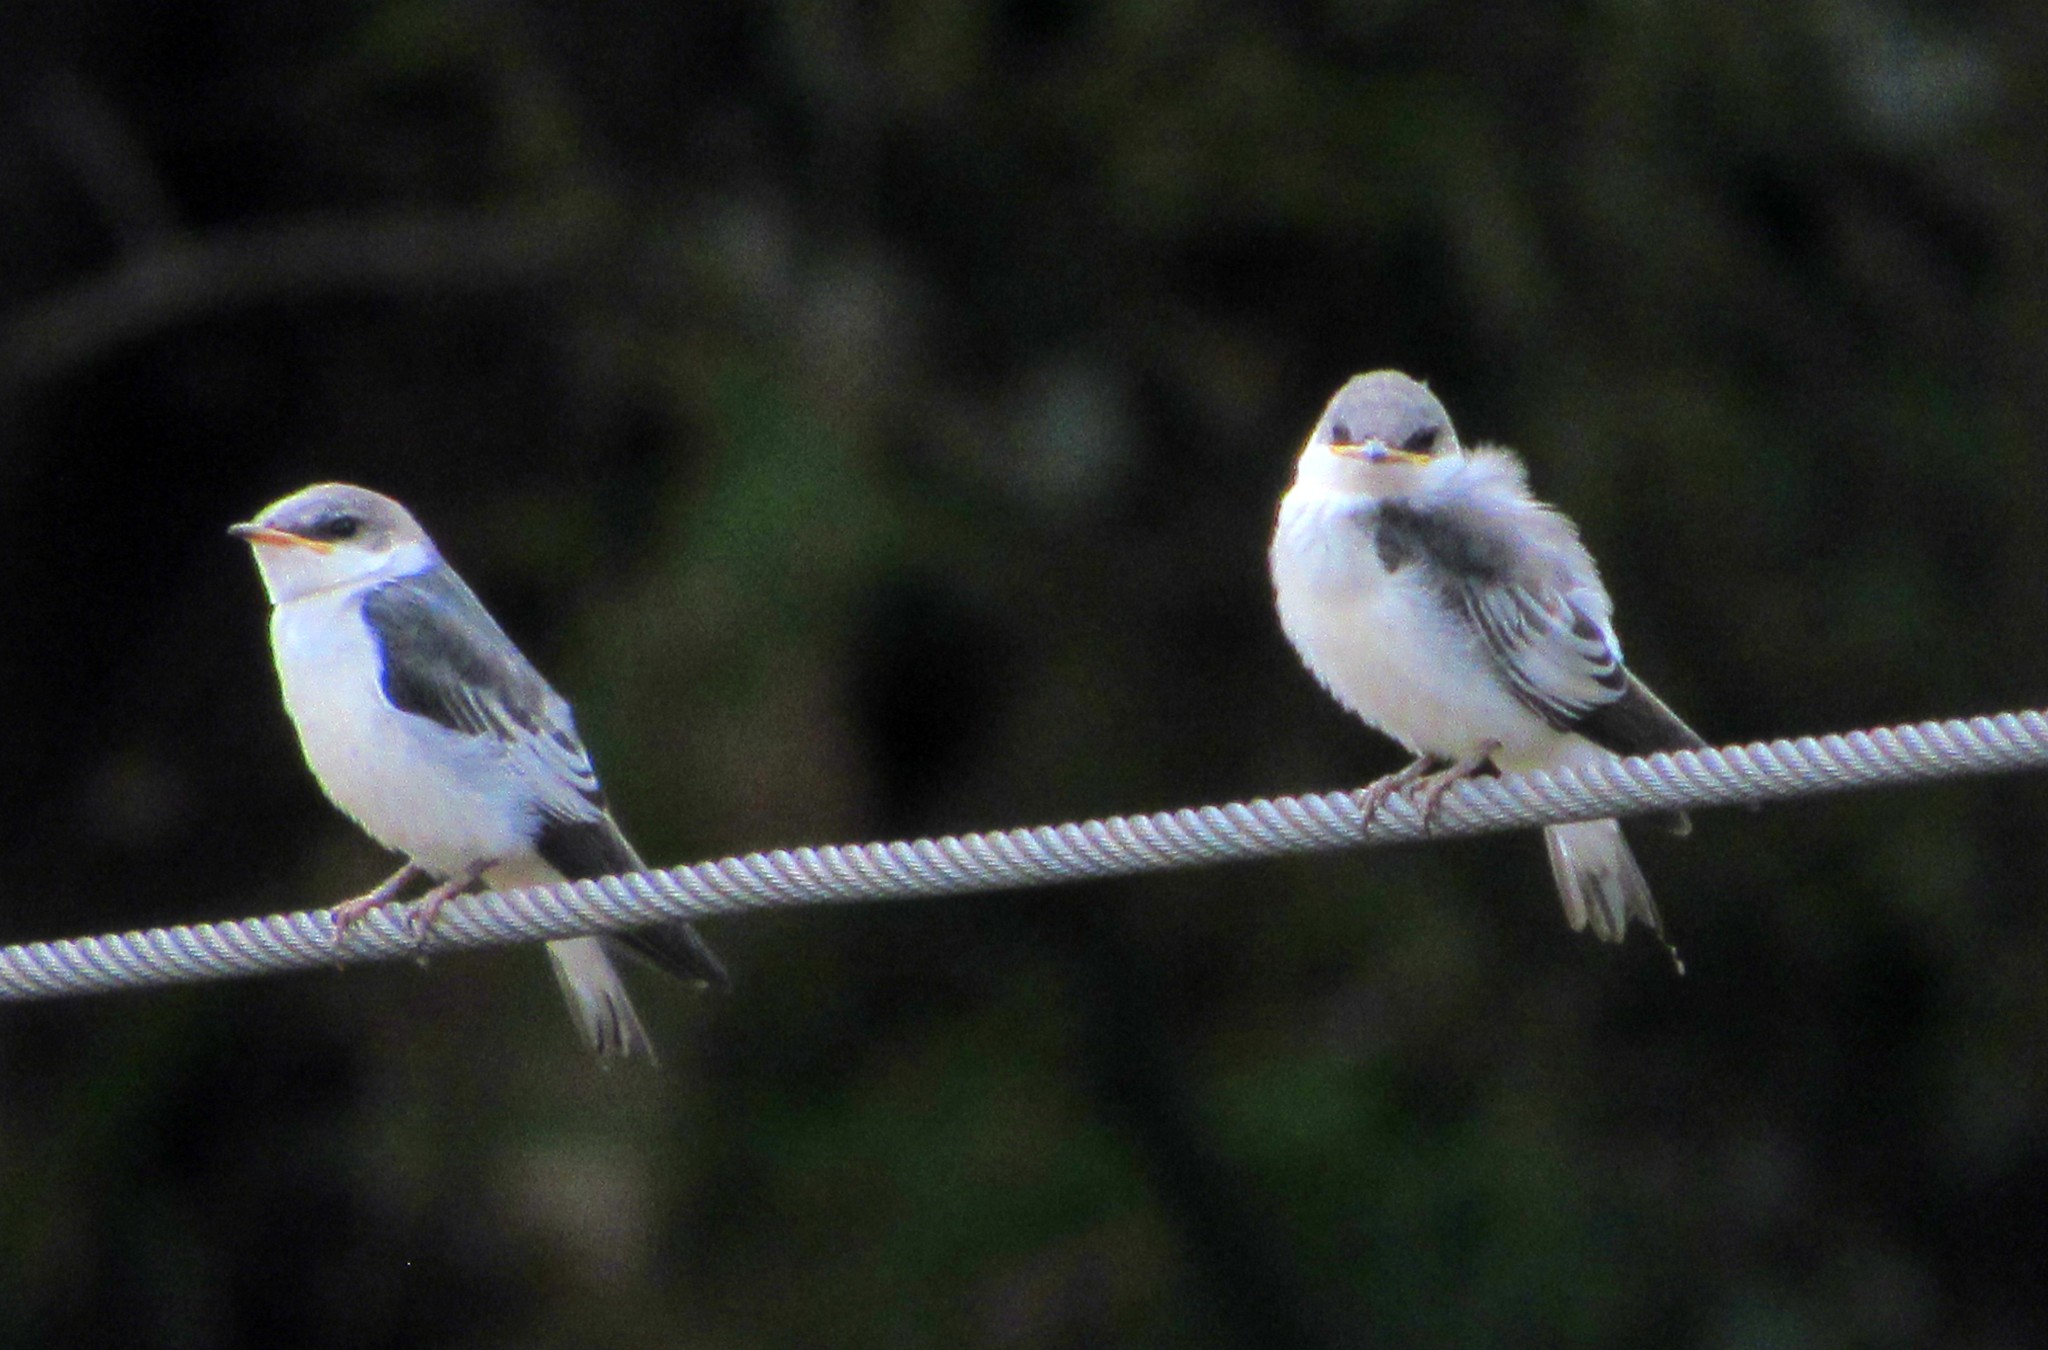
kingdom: Animalia
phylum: Chordata
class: Aves
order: Passeriformes
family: Hirundinidae
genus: Tachycineta
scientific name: Tachycineta albiventer
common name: White-winged swallow
